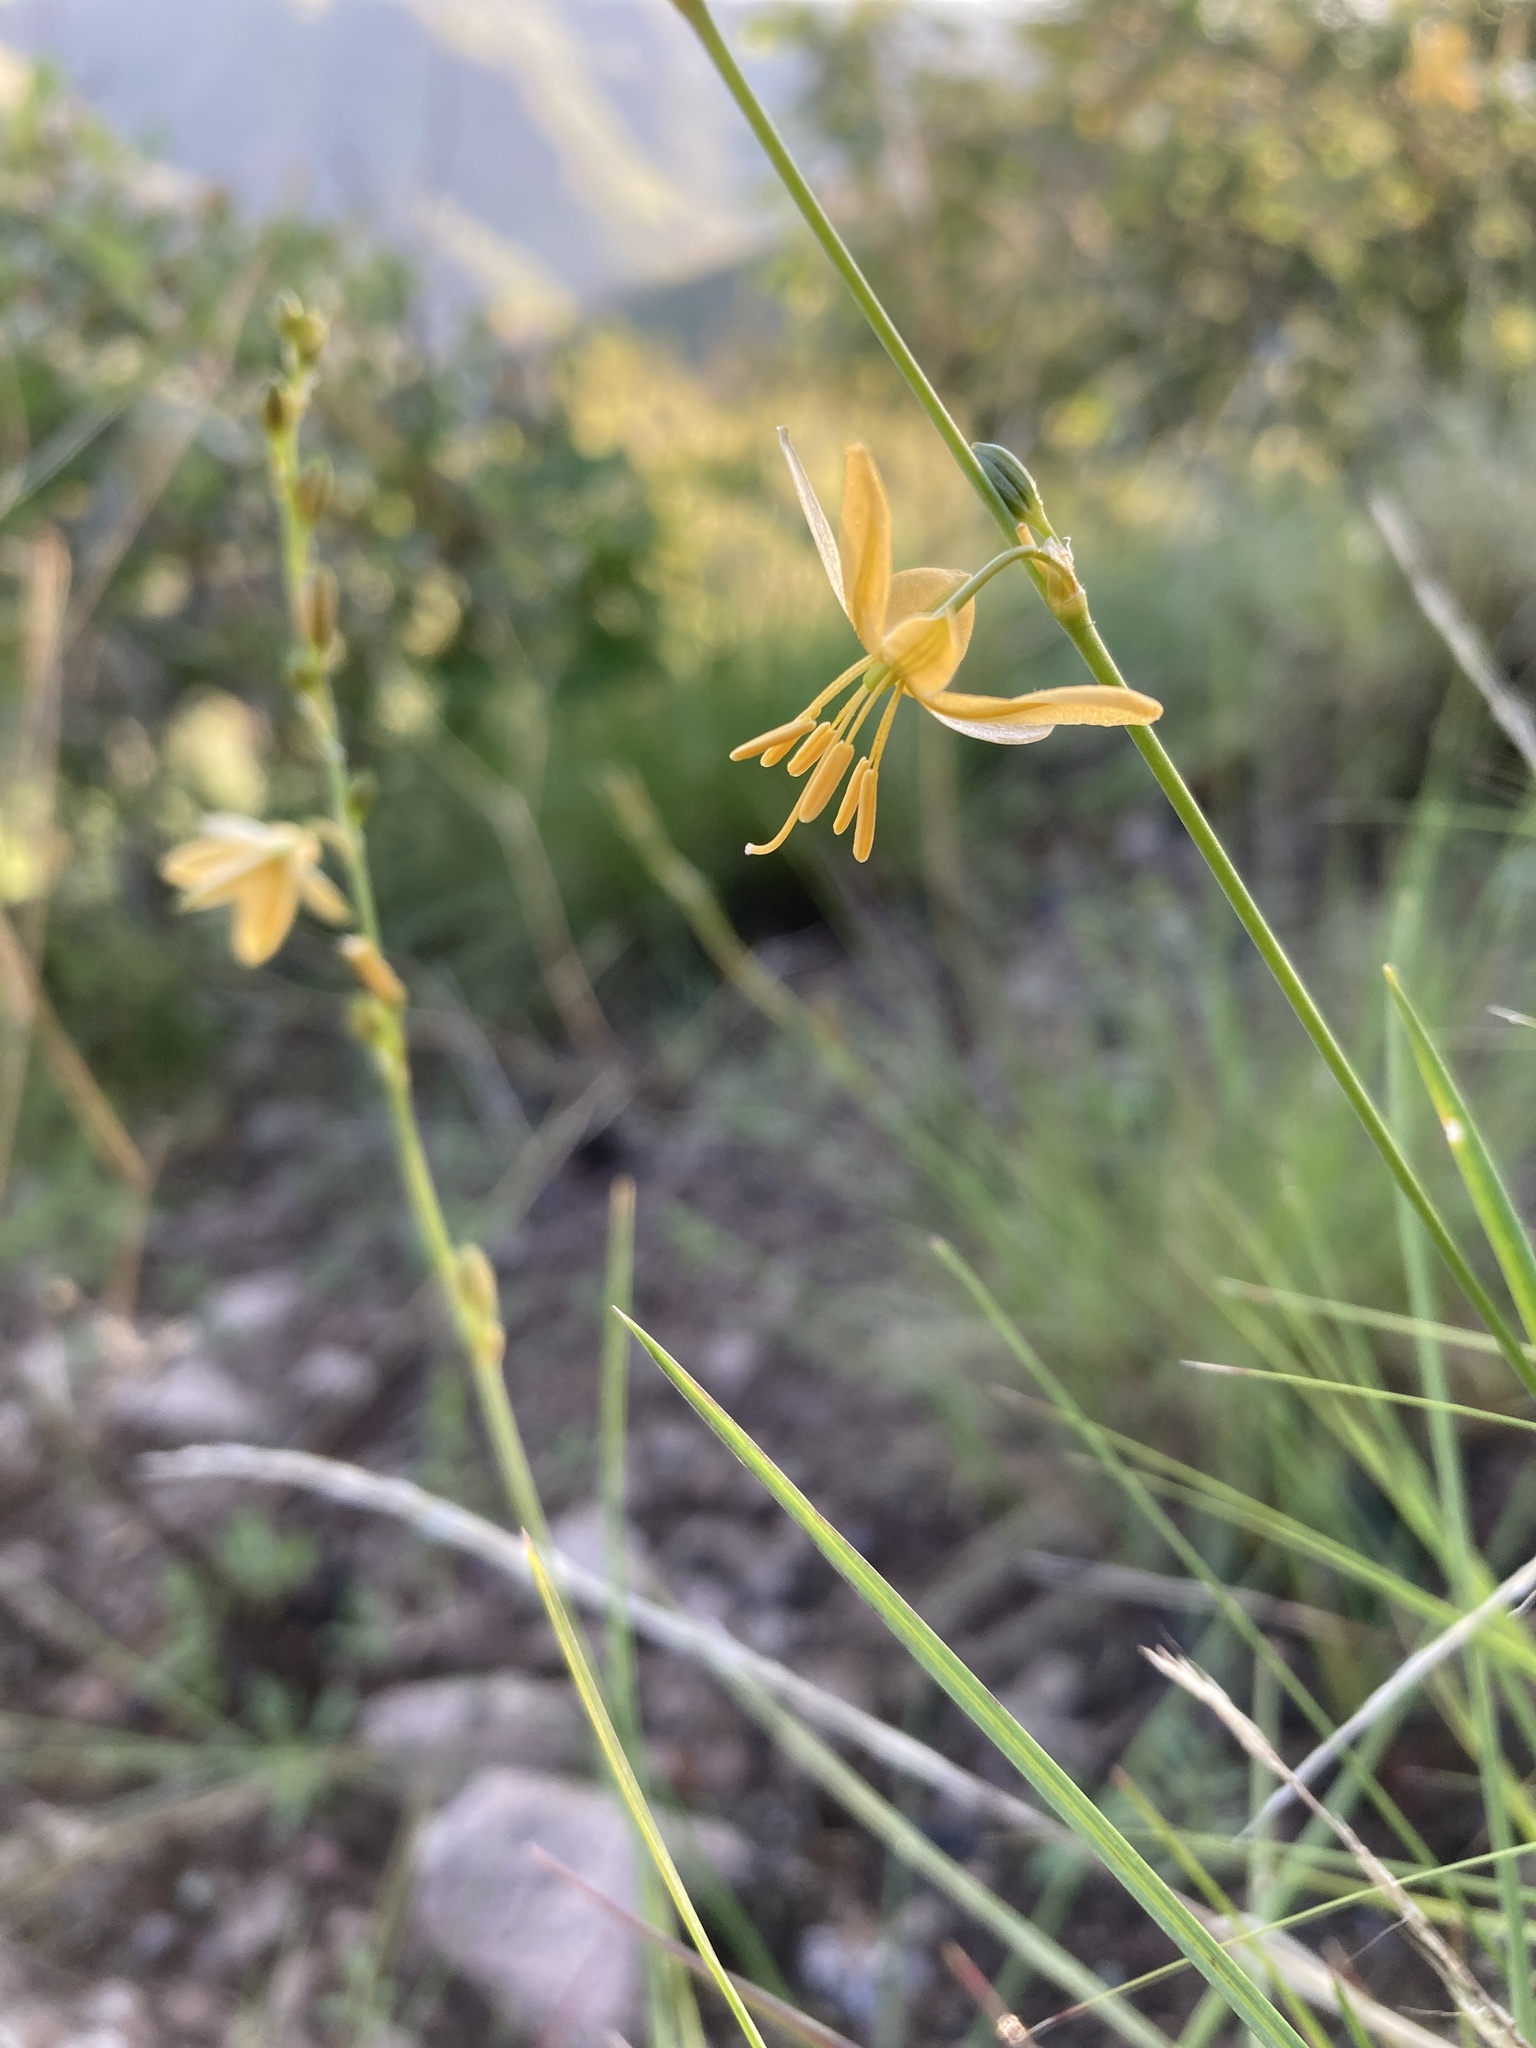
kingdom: Plantae
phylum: Tracheophyta
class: Liliopsida
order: Asparagales
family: Asparagaceae
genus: Echeandia
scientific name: Echeandia flavescens
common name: Amberlily
